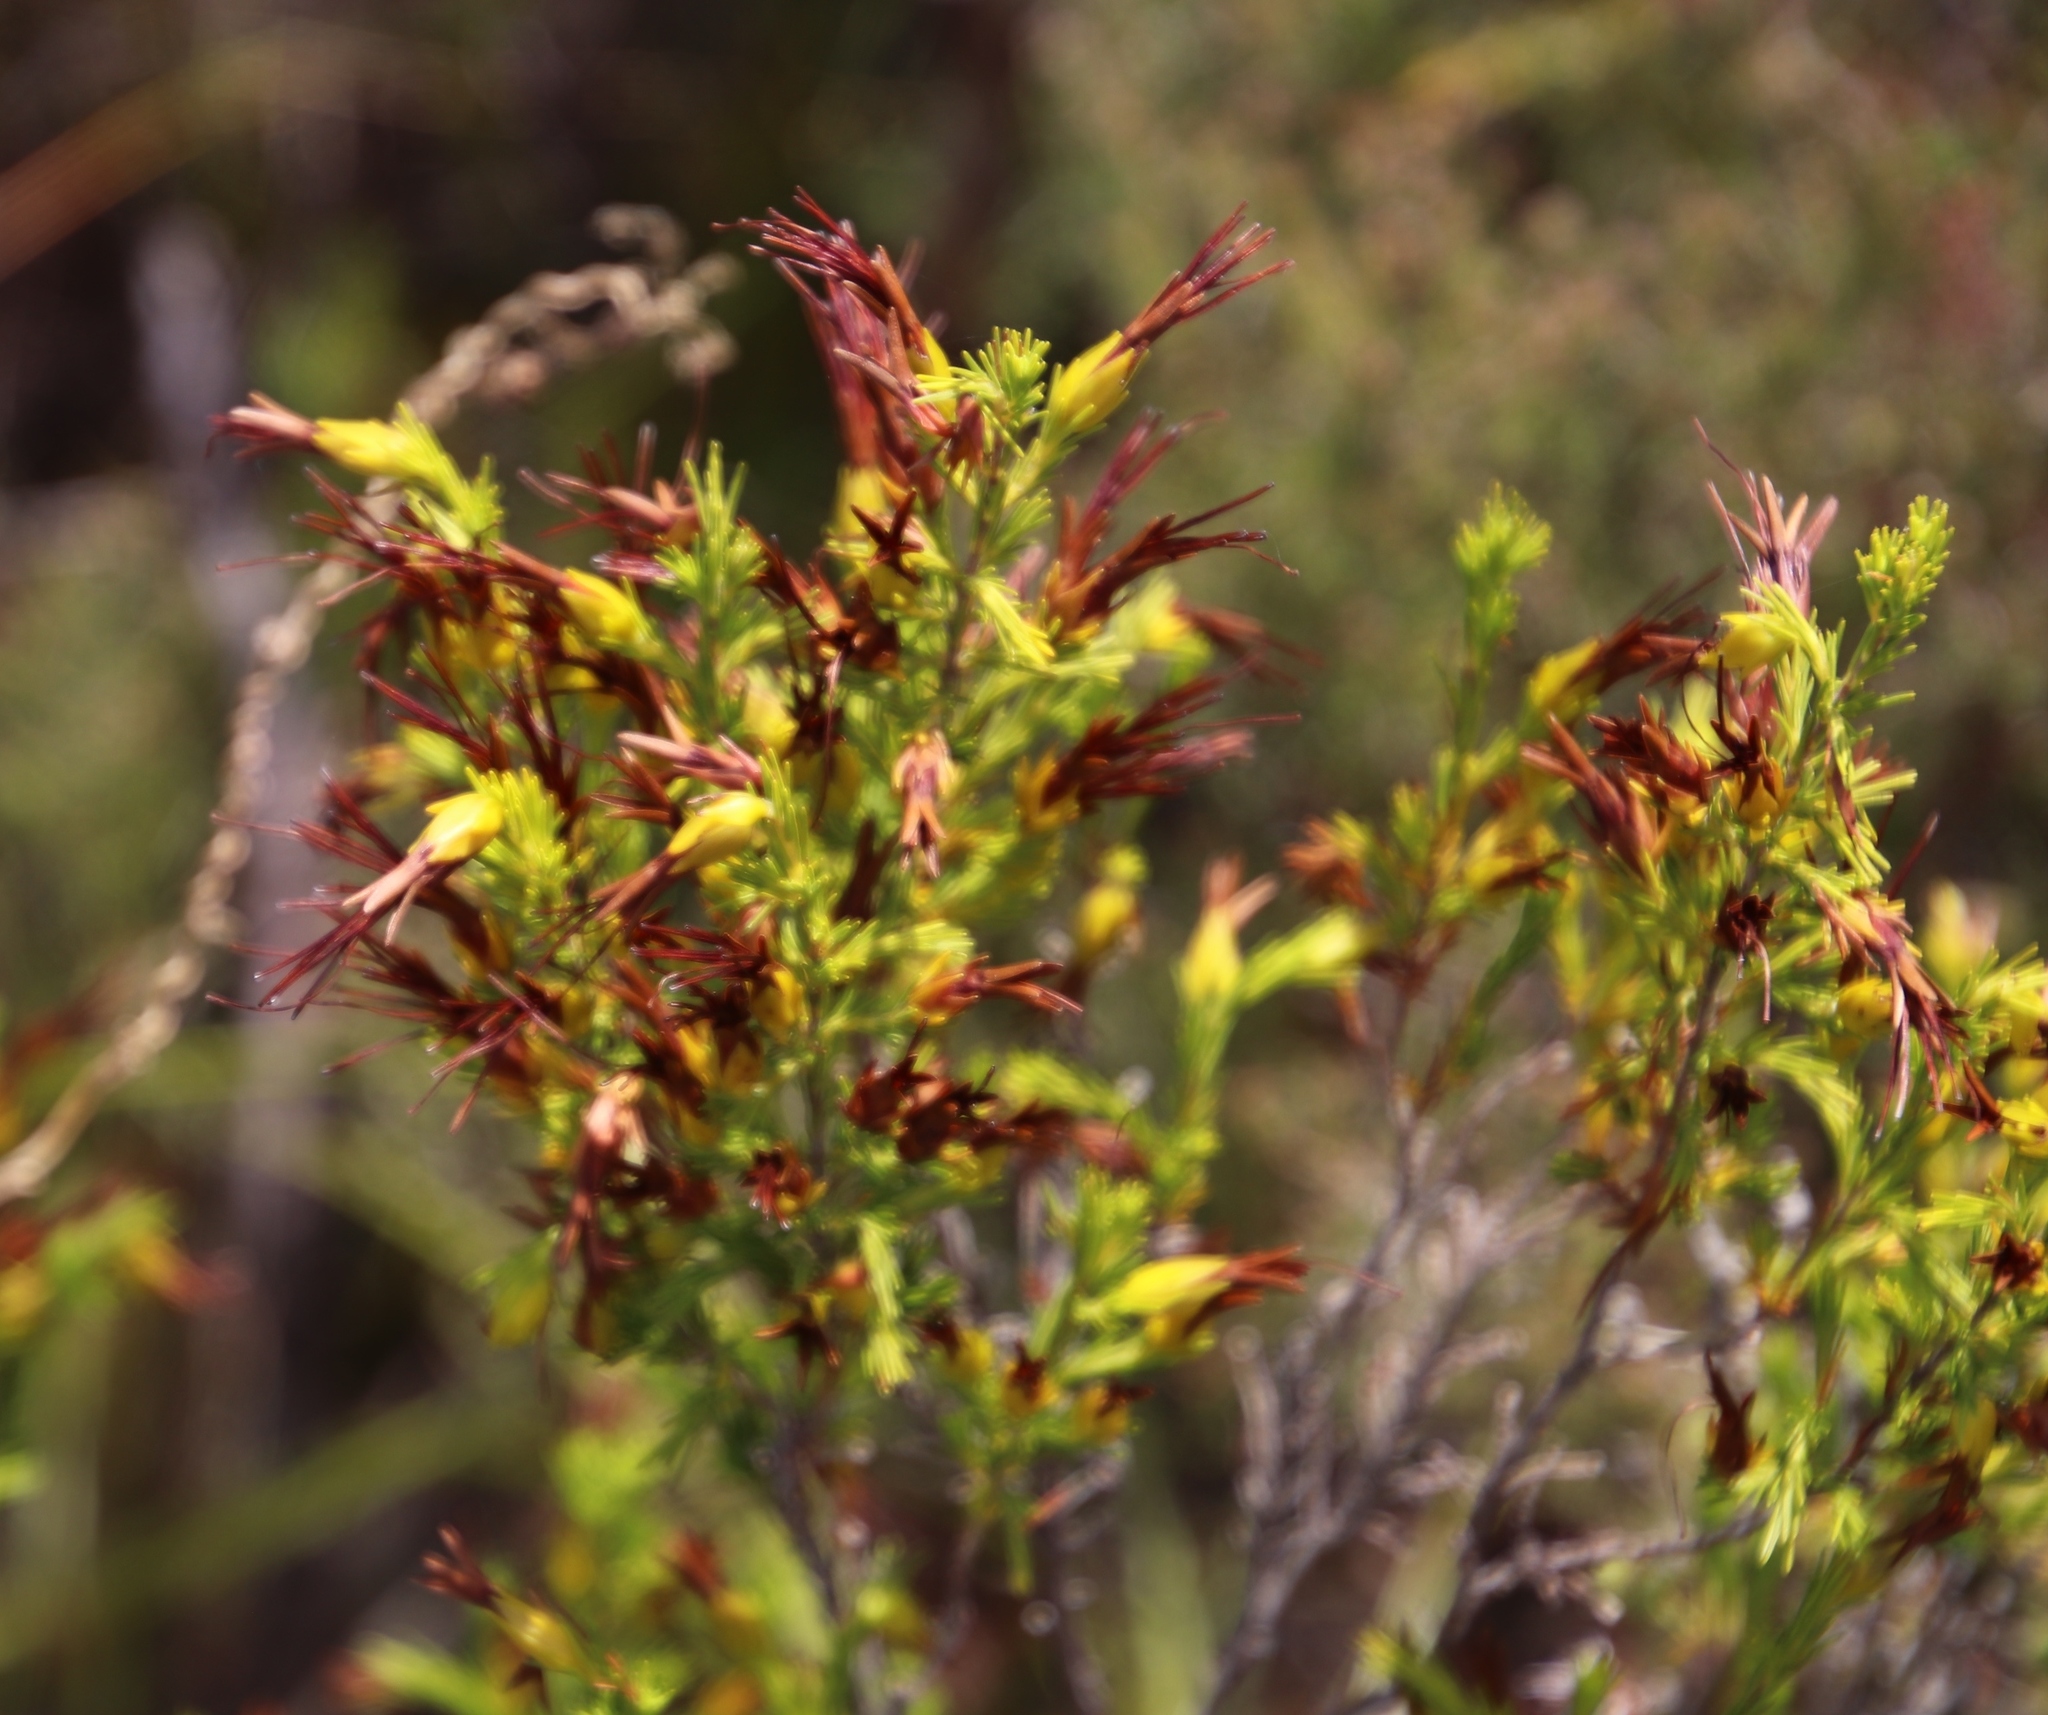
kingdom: Plantae
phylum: Tracheophyta
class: Magnoliopsida
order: Ericales
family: Ericaceae
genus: Erica
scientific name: Erica melastoma
